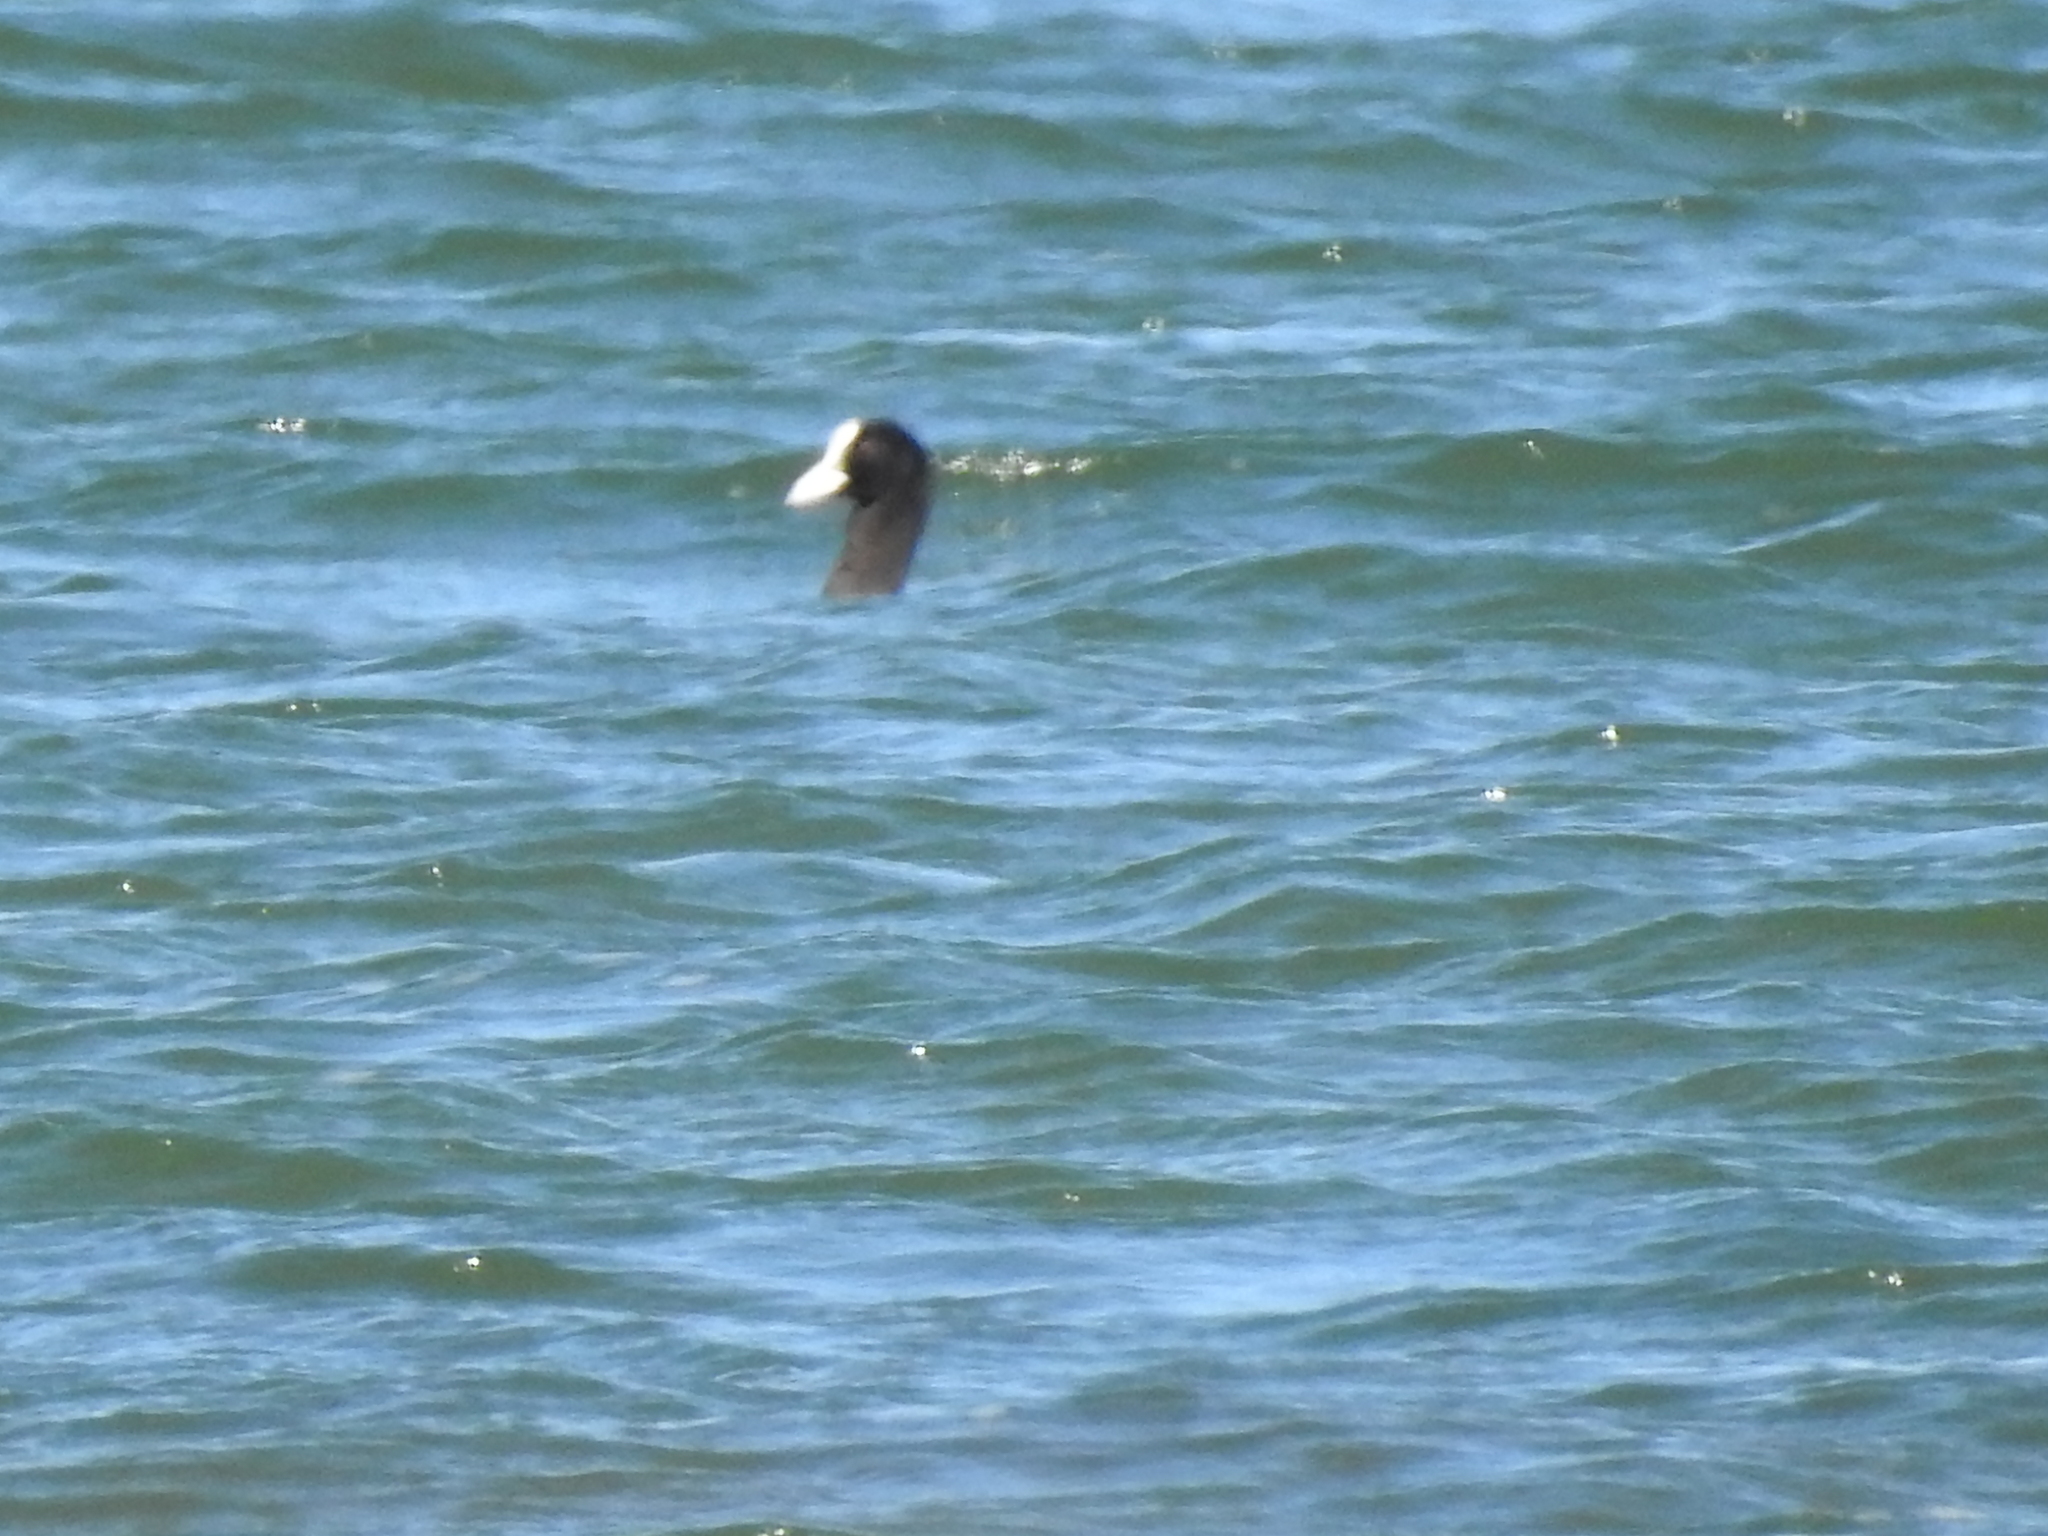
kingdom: Animalia
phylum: Chordata
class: Aves
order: Gruiformes
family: Rallidae
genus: Fulica
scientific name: Fulica atra
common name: Eurasian coot
